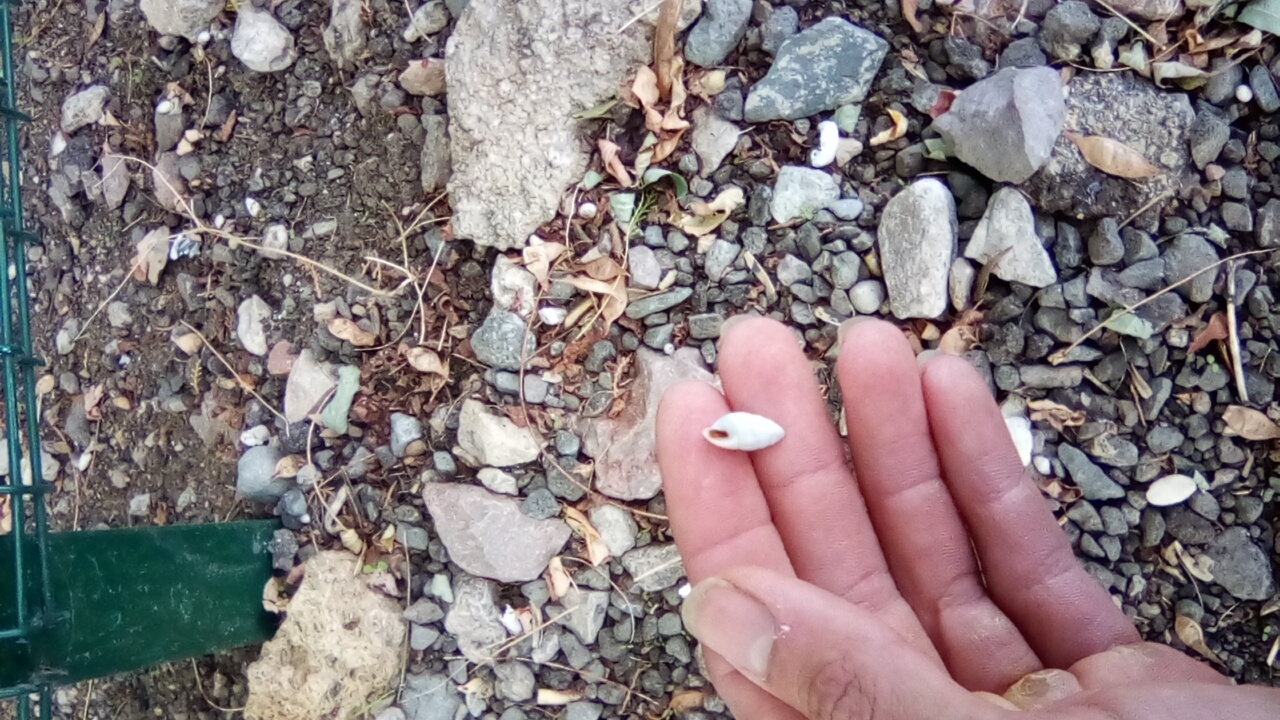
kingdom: Animalia
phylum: Mollusca
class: Gastropoda
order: Stylommatophora
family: Enidae
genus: Brephulopsis
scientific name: Brephulopsis cylindrica
